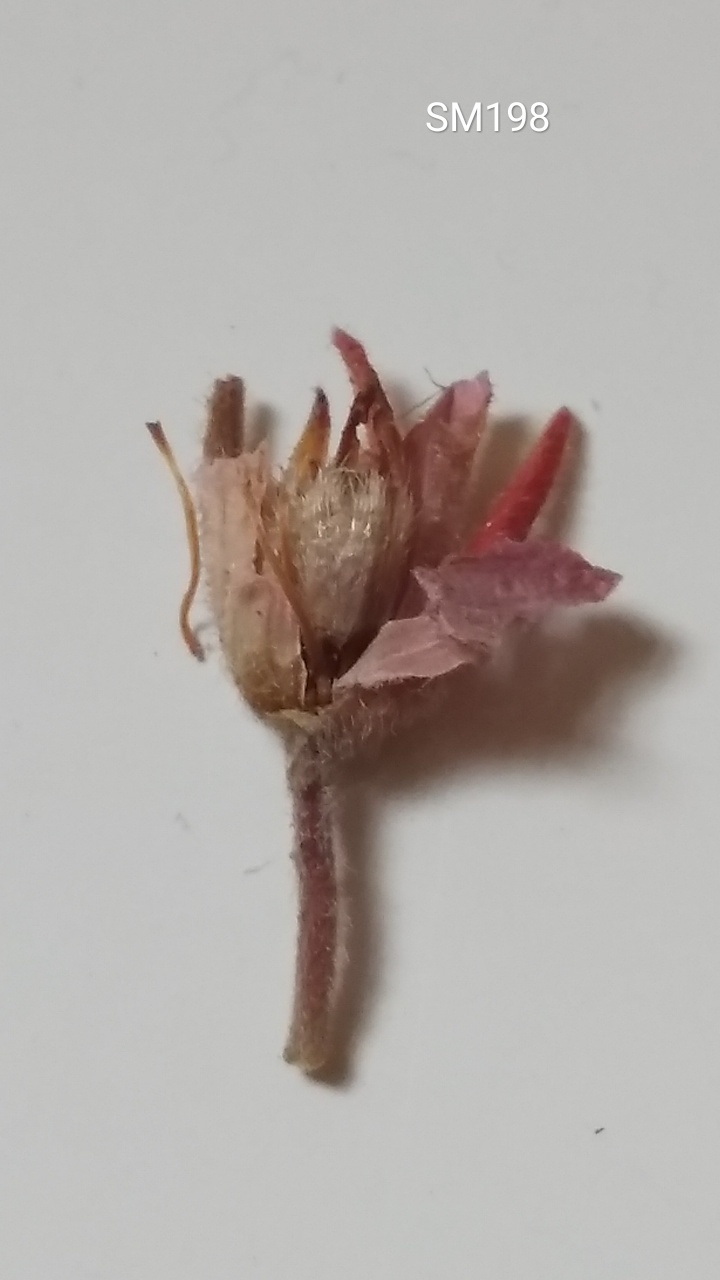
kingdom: Plantae
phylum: Tracheophyta
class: Magnoliopsida
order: Ericales
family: Ericaceae
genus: Erica
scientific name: Erica viscaria
